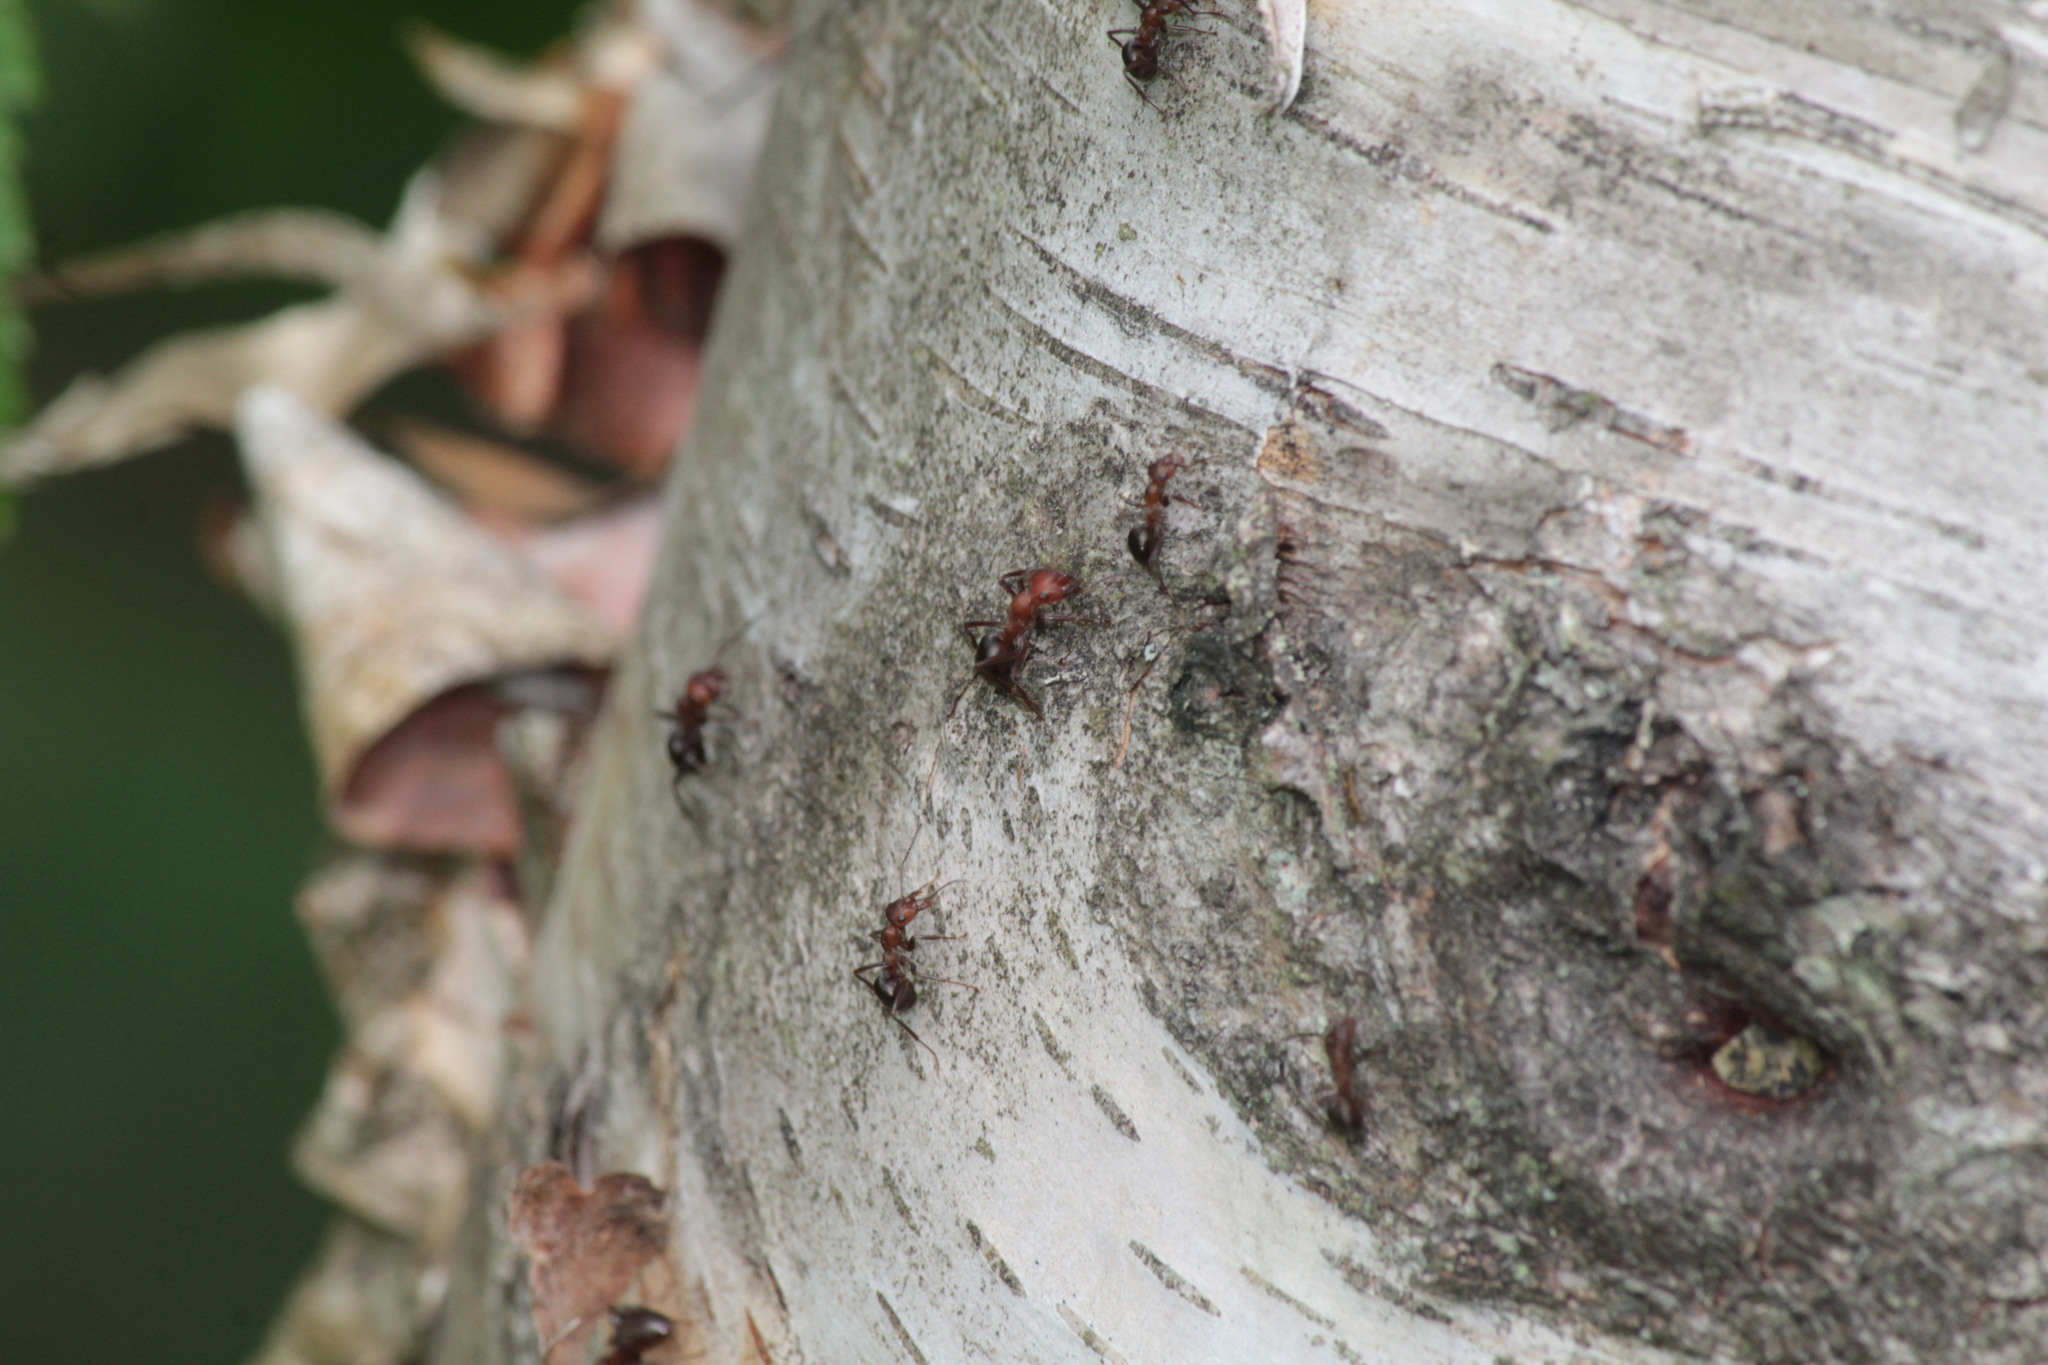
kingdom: Animalia
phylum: Arthropoda
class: Insecta
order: Hymenoptera
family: Formicidae
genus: Formica
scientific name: Formica exsectoides
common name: Allegheny mound ant
